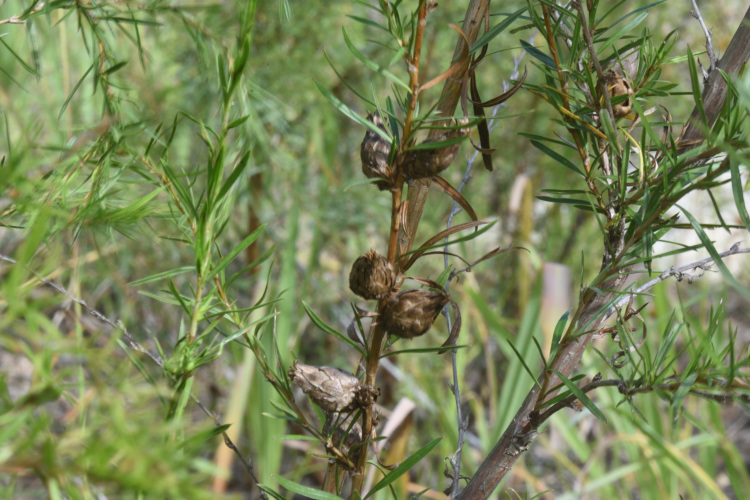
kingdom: Plantae
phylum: Tracheophyta
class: Magnoliopsida
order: Rosales
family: Rosaceae
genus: Cliffortia
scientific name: Cliffortia strobilifera
